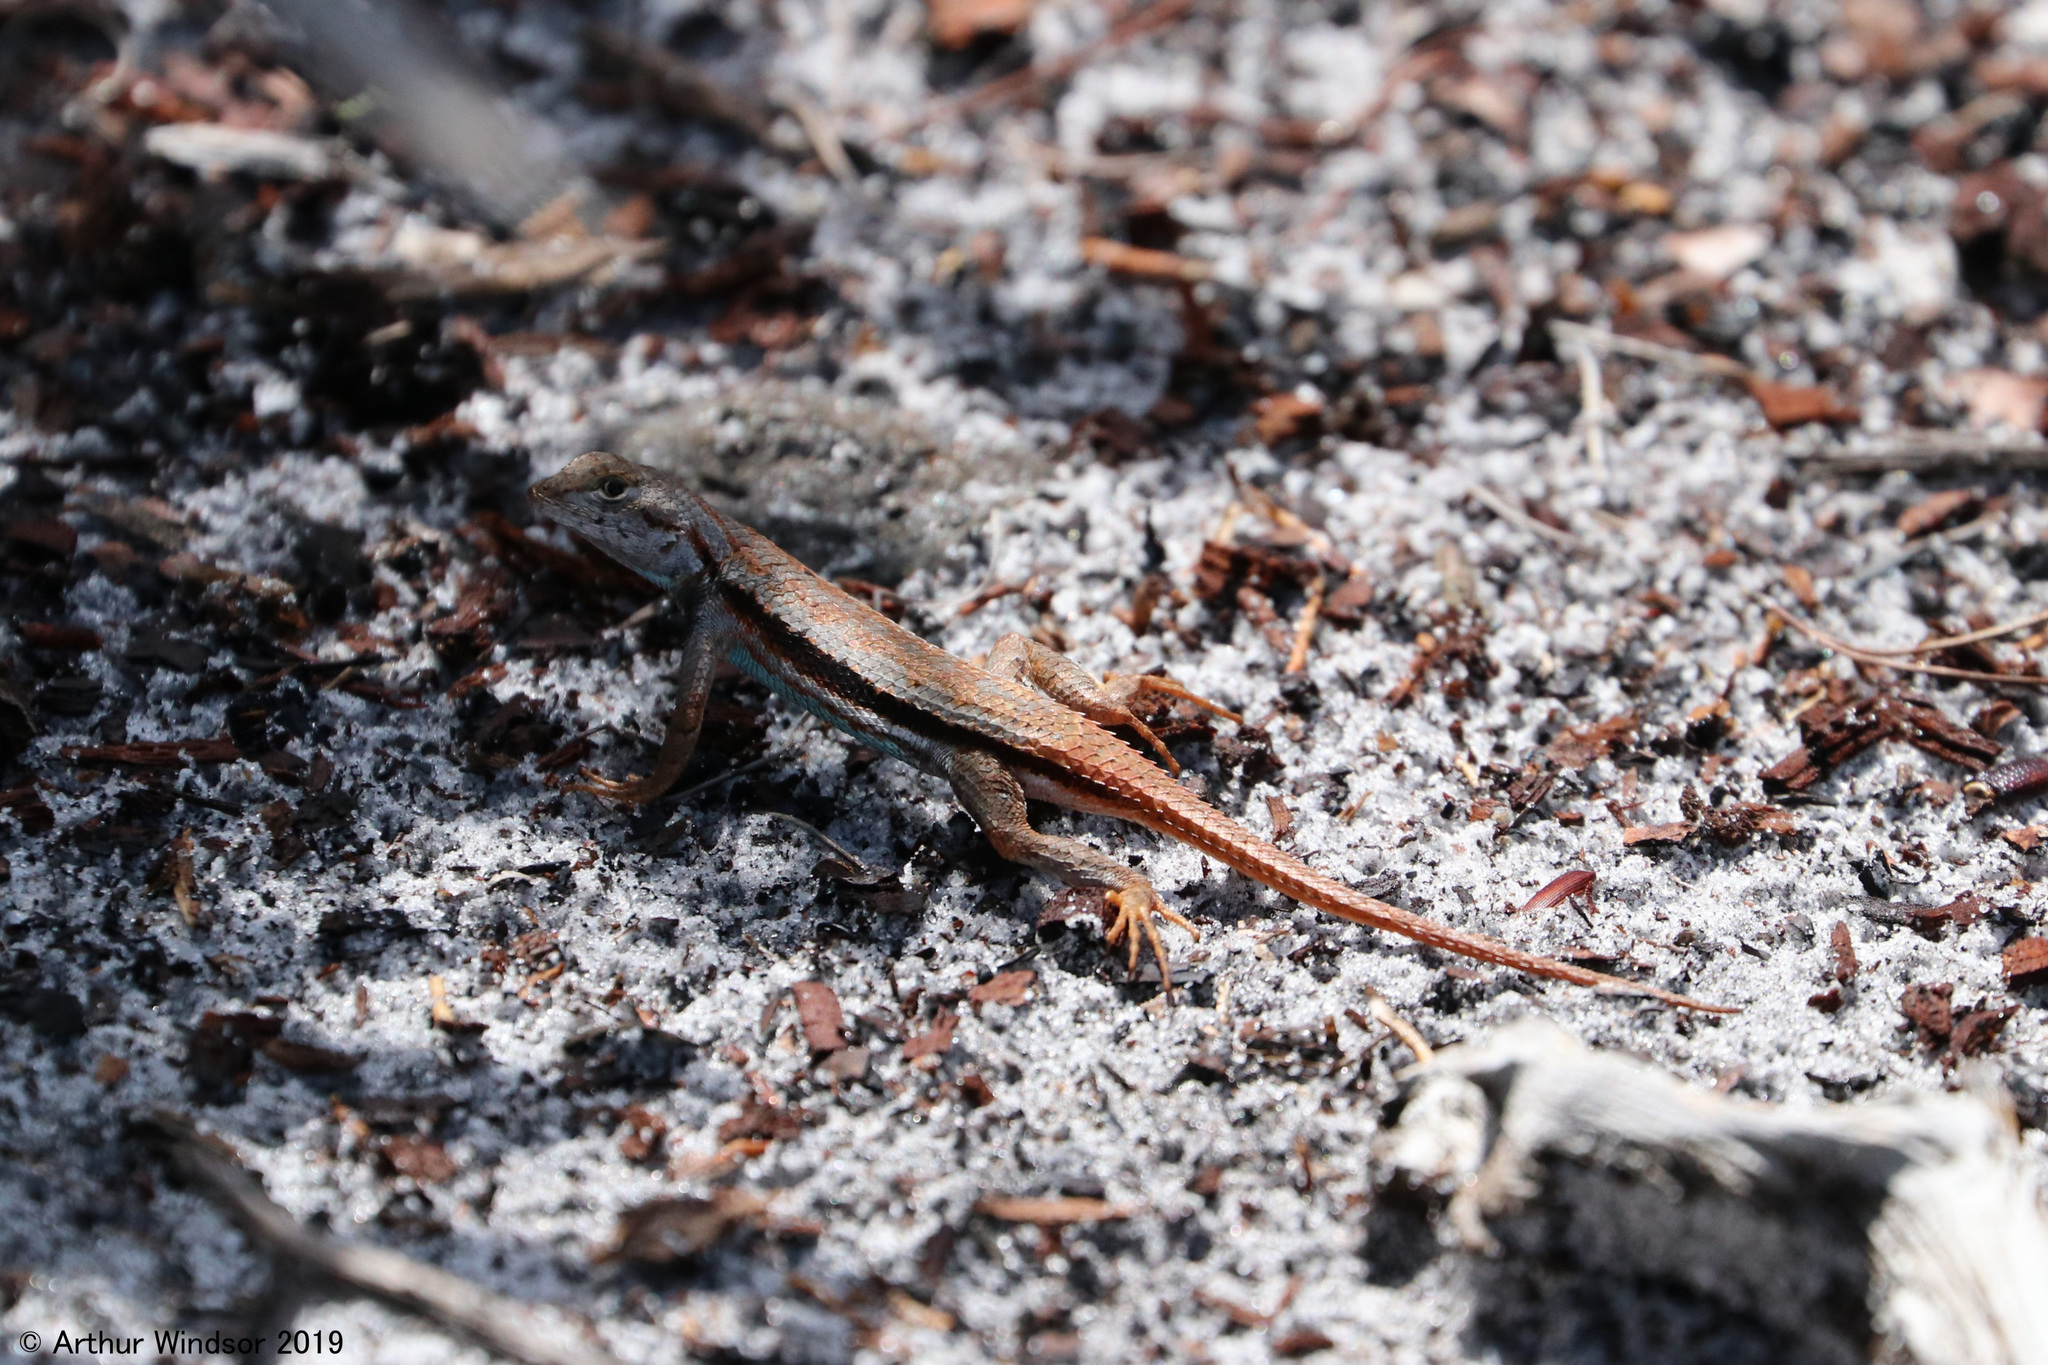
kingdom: Animalia
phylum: Chordata
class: Squamata
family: Phrynosomatidae
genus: Sceloporus
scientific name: Sceloporus woodi
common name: Florida scrub lizard
